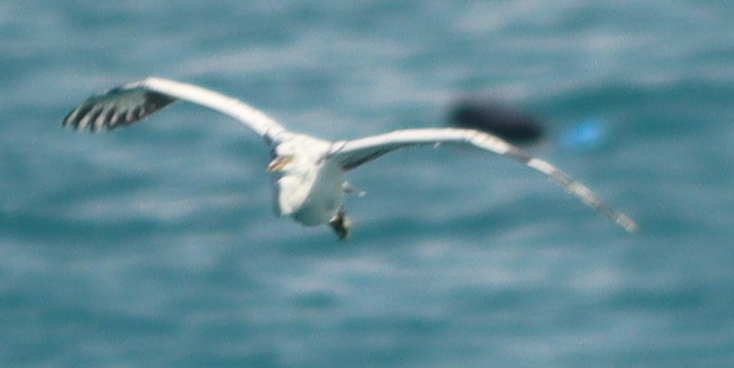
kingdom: Animalia
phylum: Chordata
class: Aves
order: Pelecaniformes
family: Ardeidae
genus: Egretta
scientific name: Egretta gularis
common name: Western reef-heron
